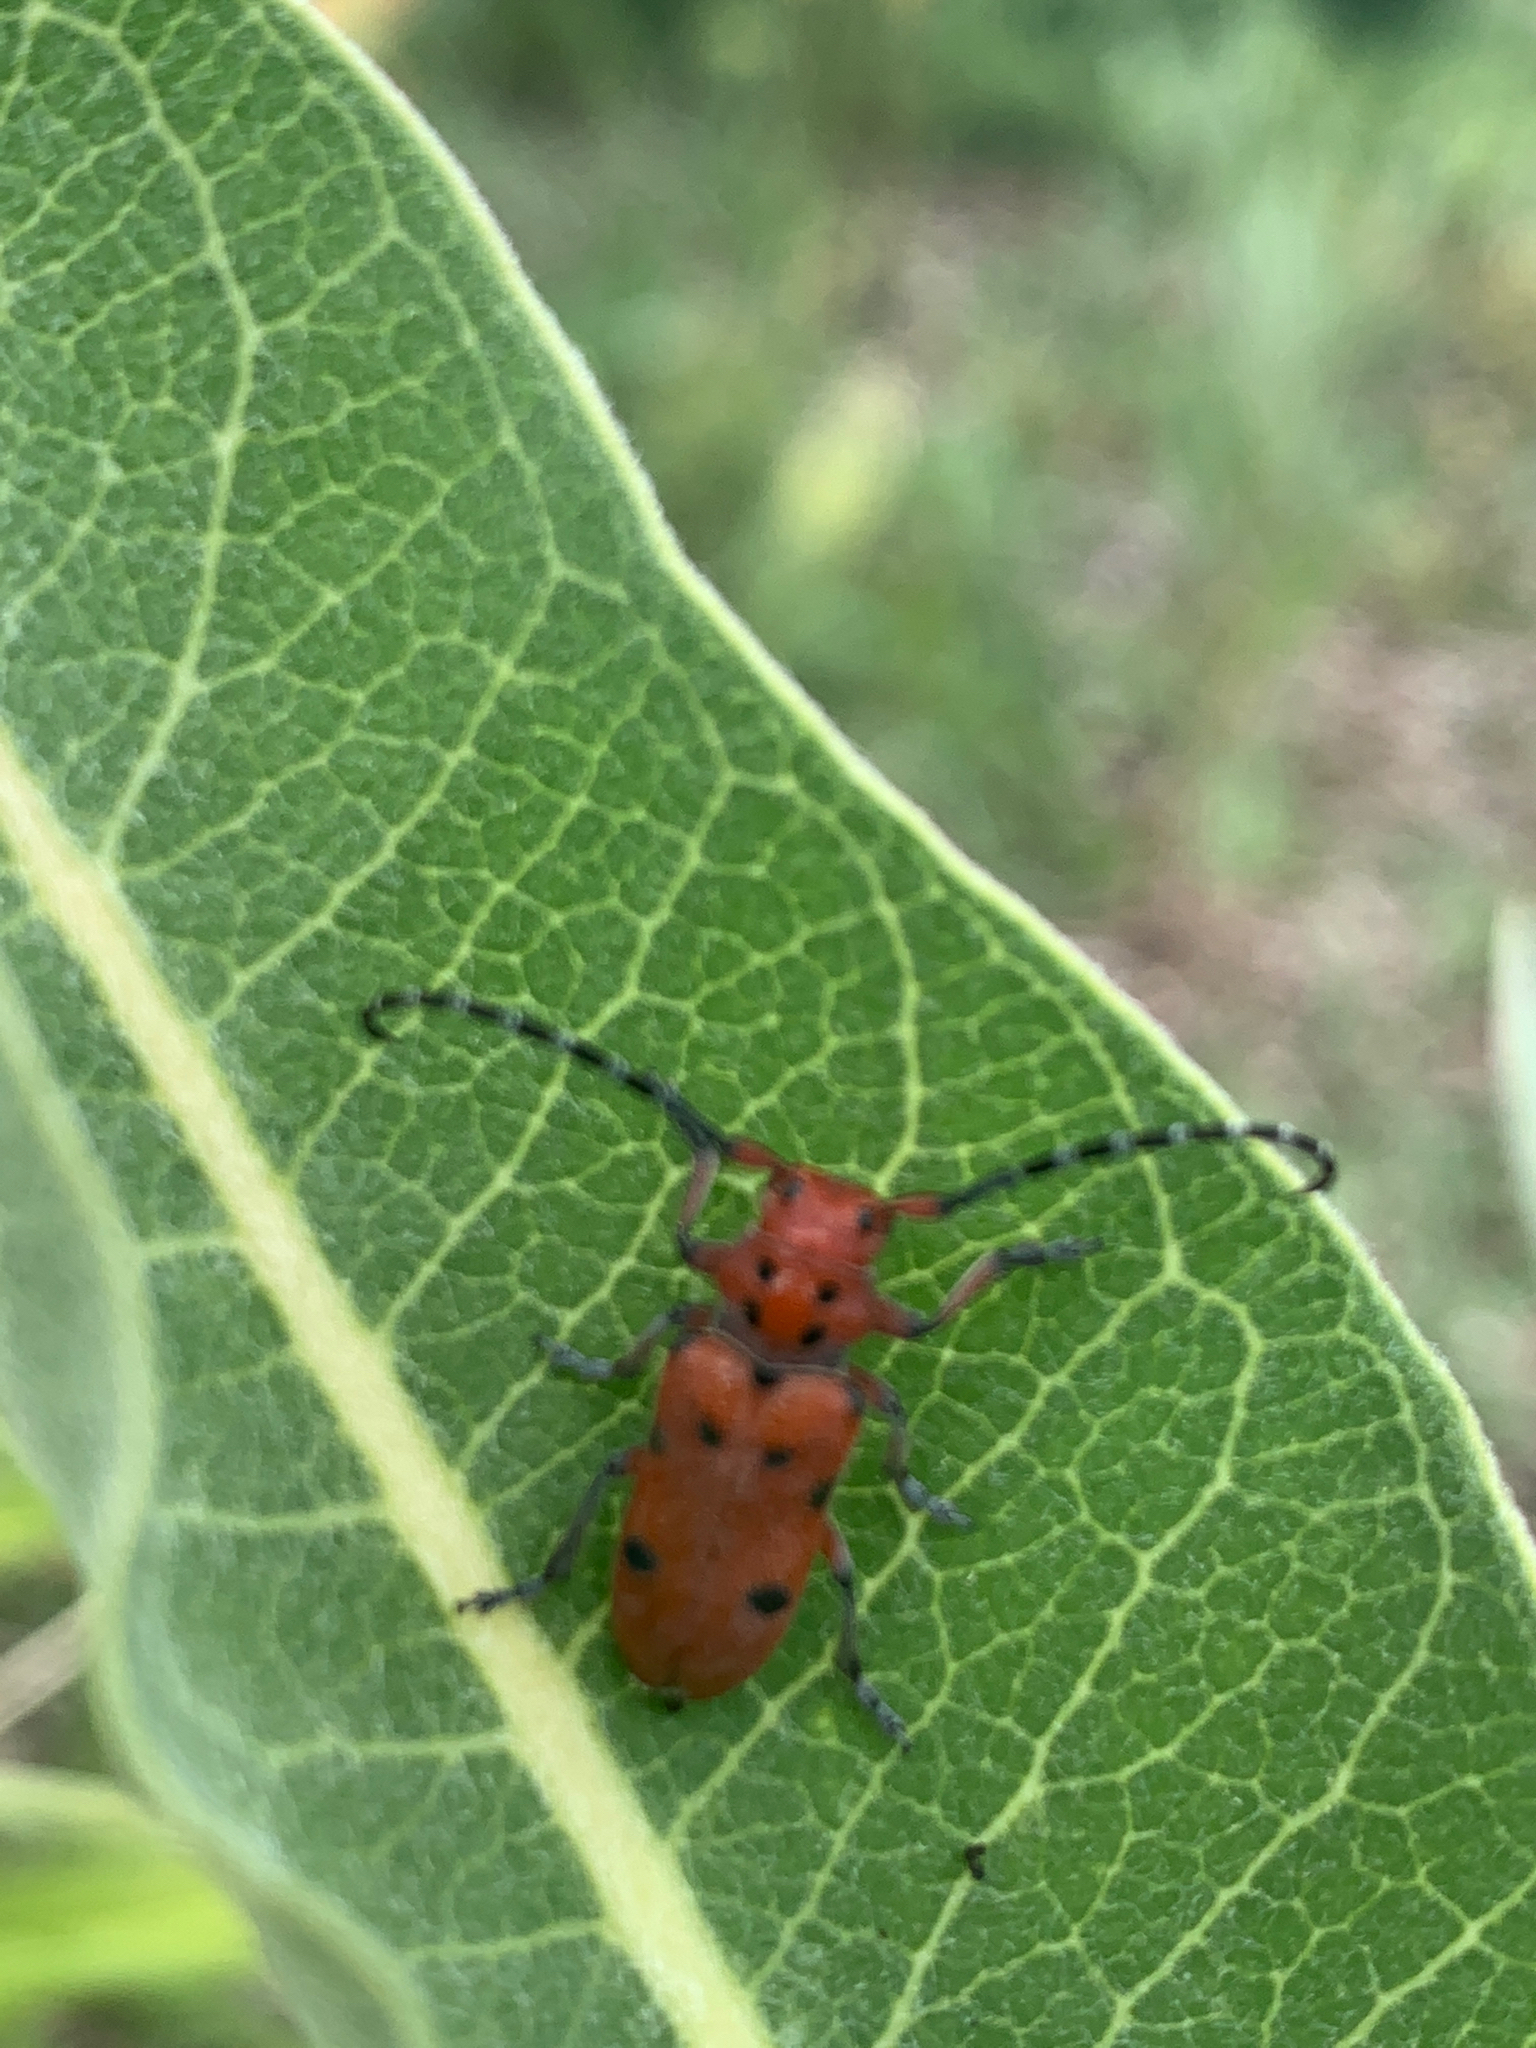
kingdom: Animalia
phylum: Arthropoda
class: Insecta
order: Coleoptera
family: Cerambycidae
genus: Tetraopes
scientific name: Tetraopes femoratus
